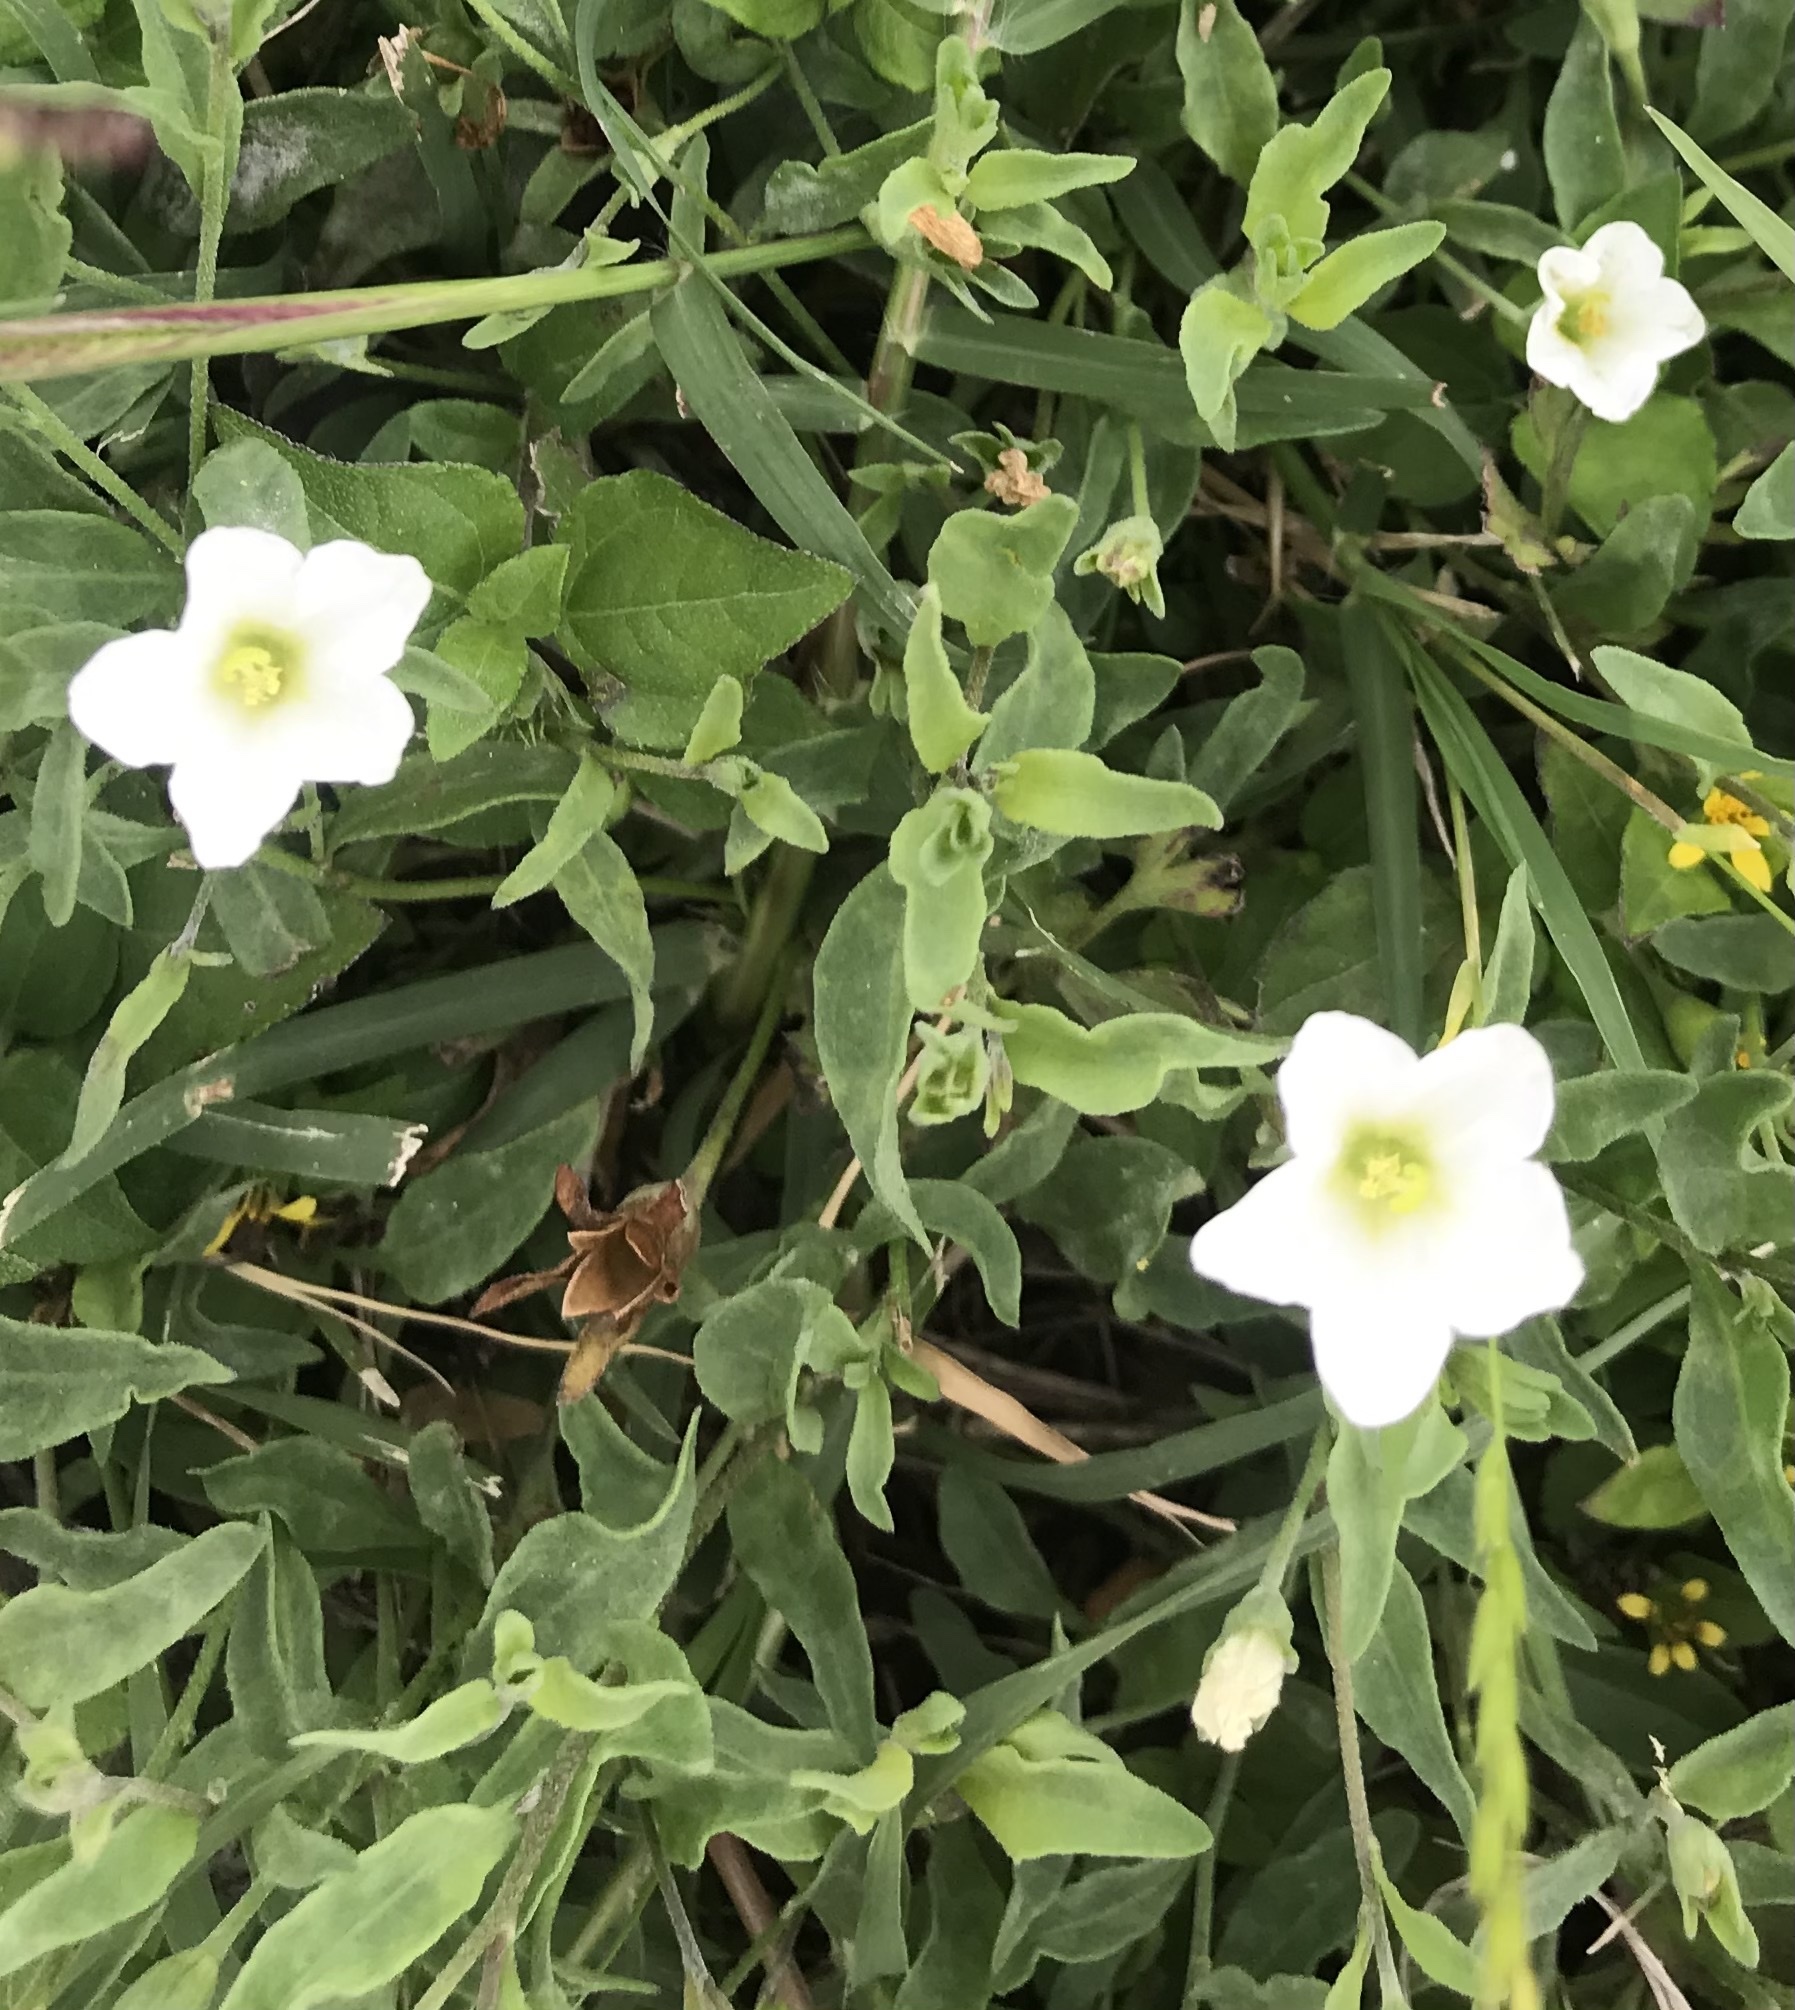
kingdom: Plantae
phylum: Tracheophyta
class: Magnoliopsida
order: Solanales
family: Solanaceae
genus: Salpiglossis
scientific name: Salpiglossis erecta
